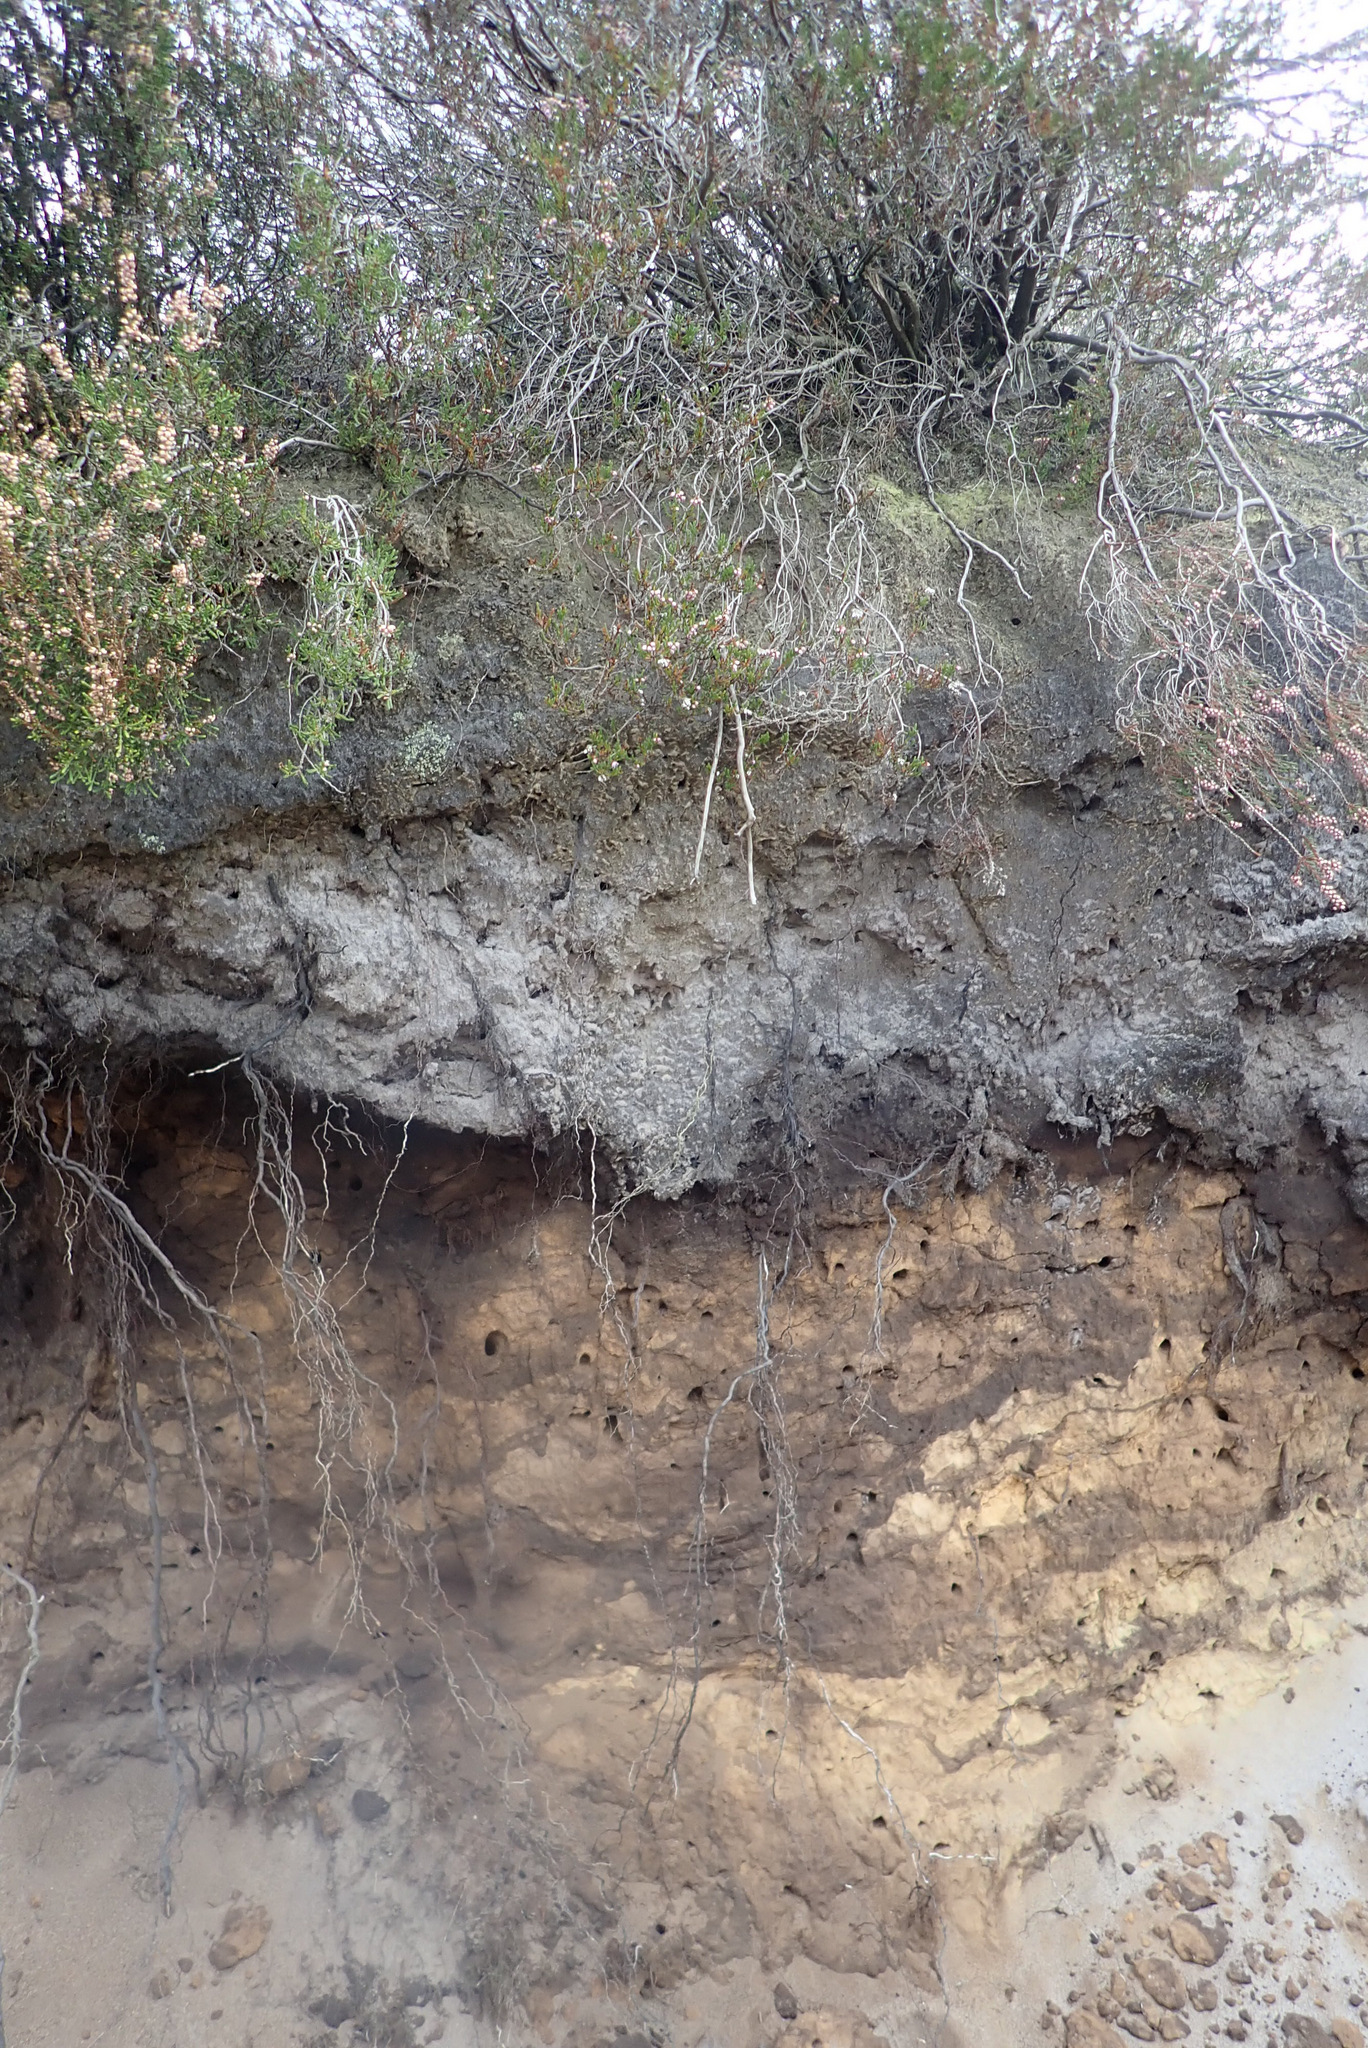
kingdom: Plantae
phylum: Tracheophyta
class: Magnoliopsida
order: Ericales
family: Ericaceae
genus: Calluna
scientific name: Calluna vulgaris
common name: Heather
